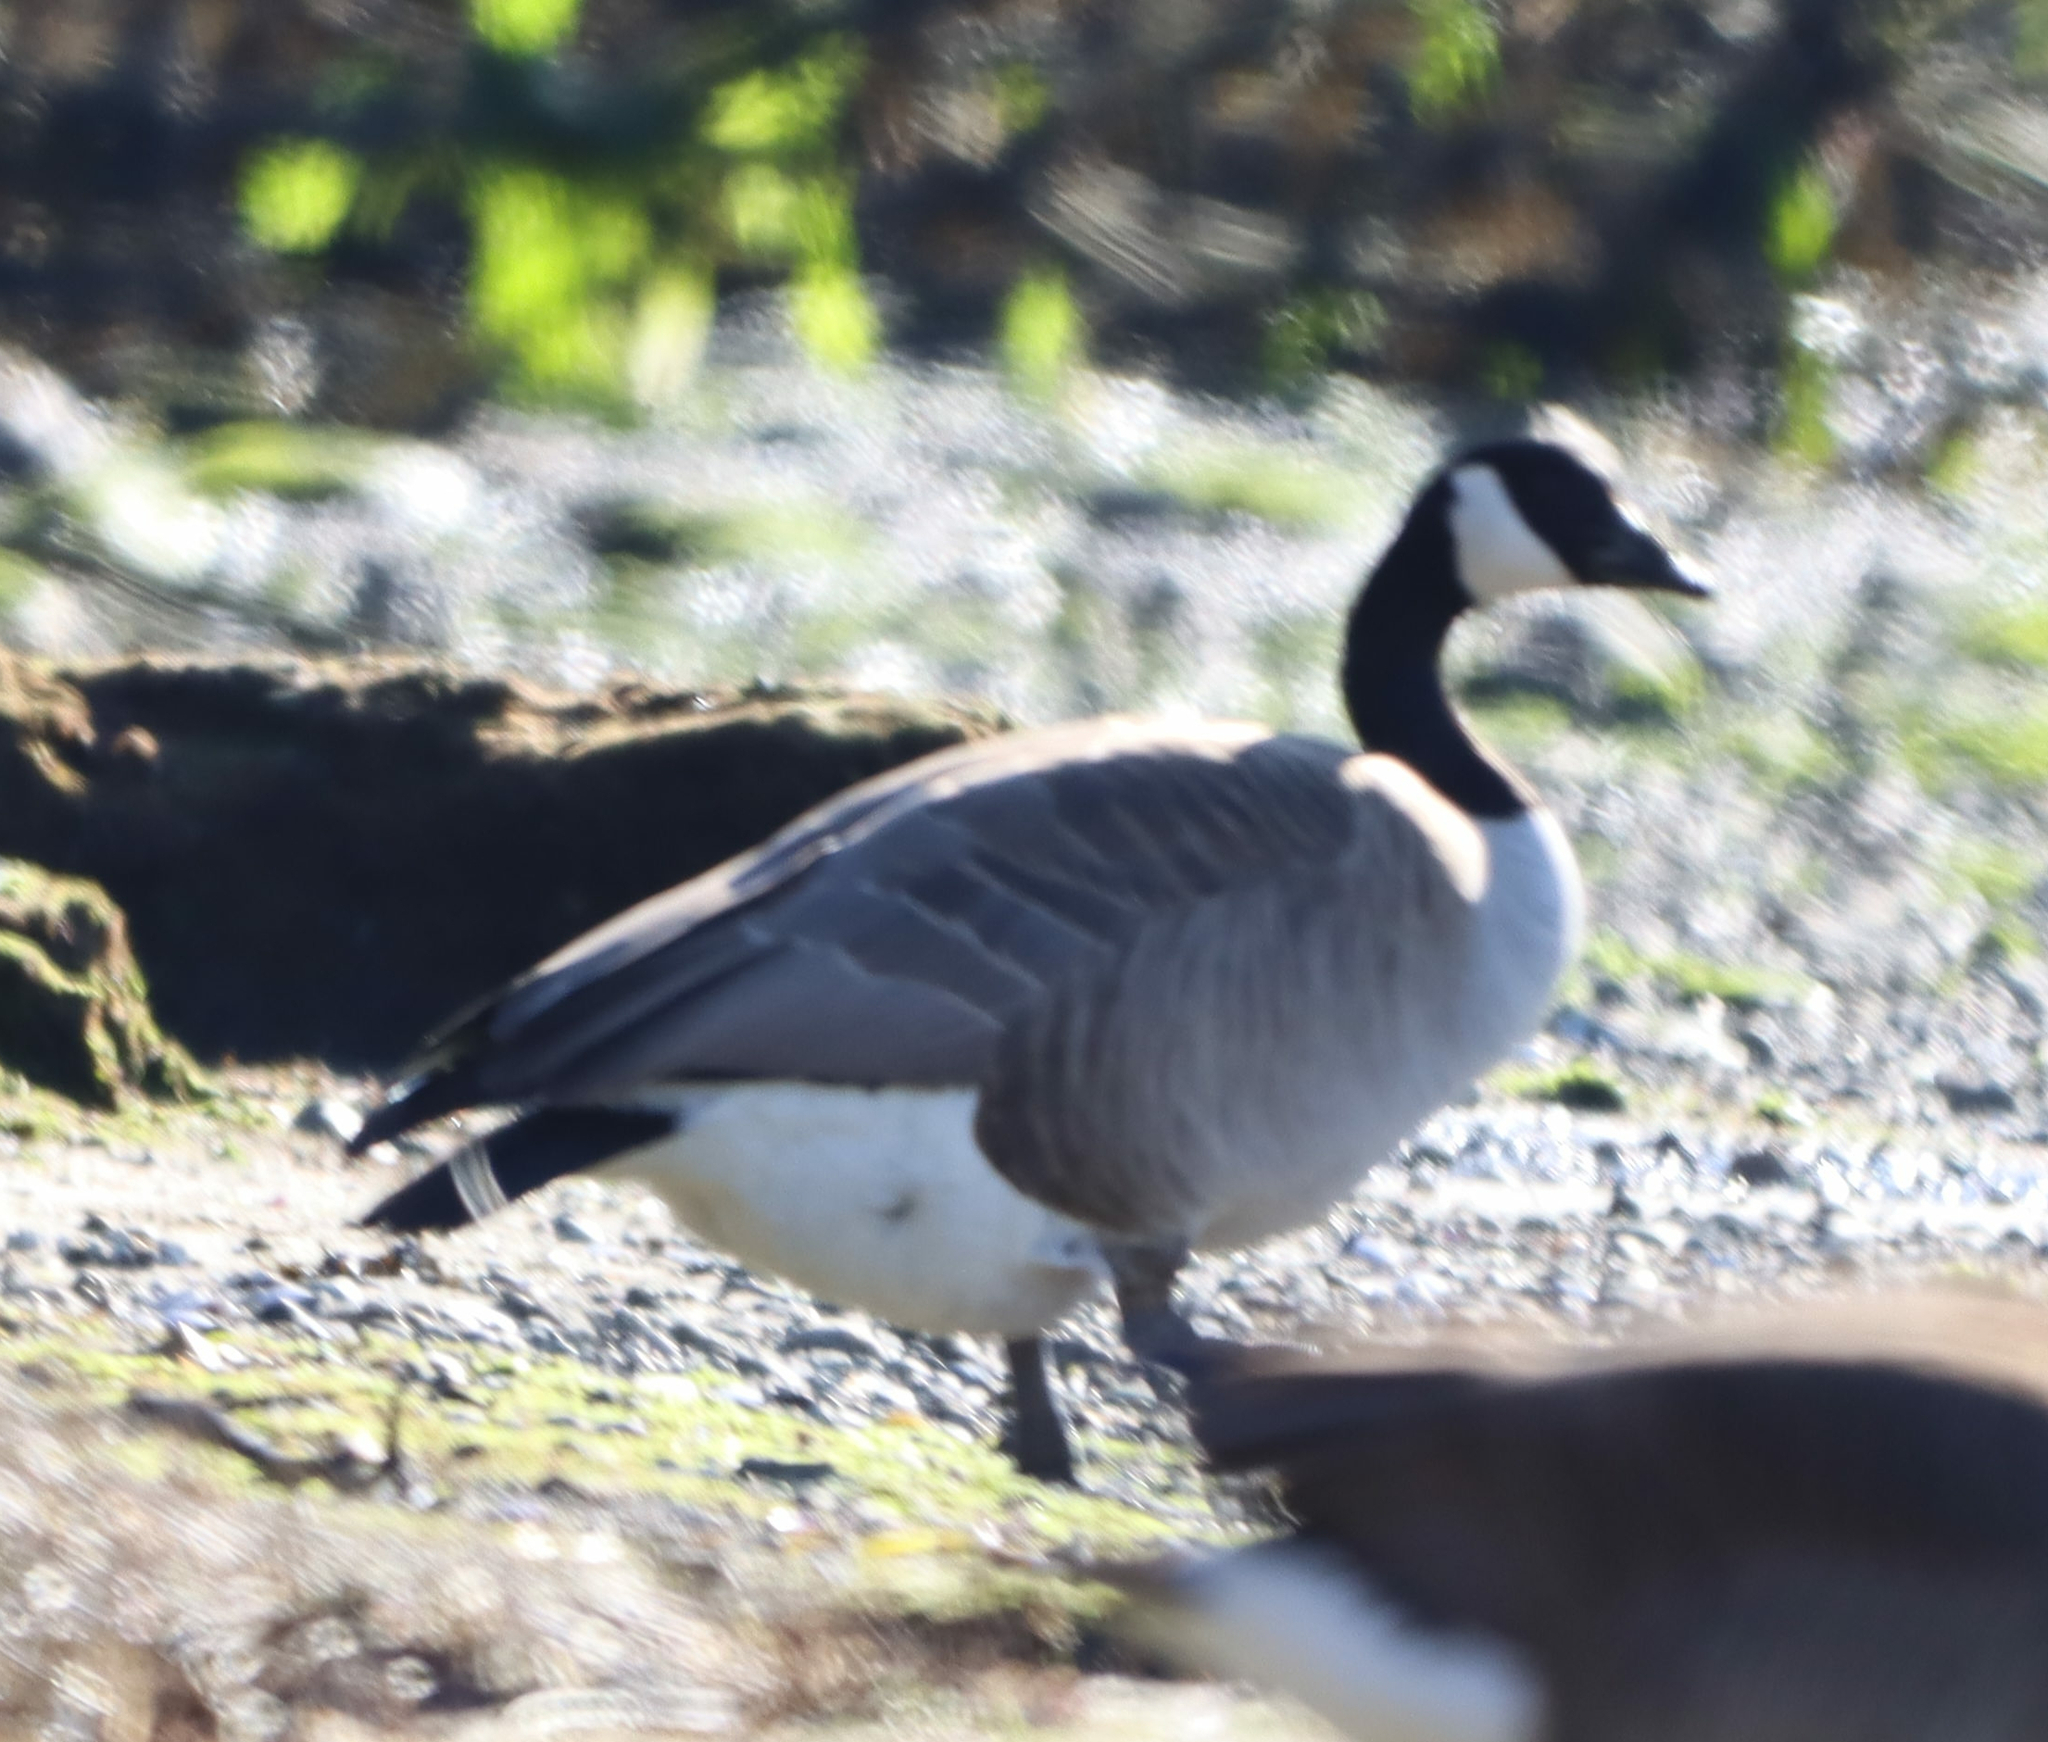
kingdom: Animalia
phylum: Chordata
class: Aves
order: Anseriformes
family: Anatidae
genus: Branta
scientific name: Branta canadensis
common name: Canada goose
